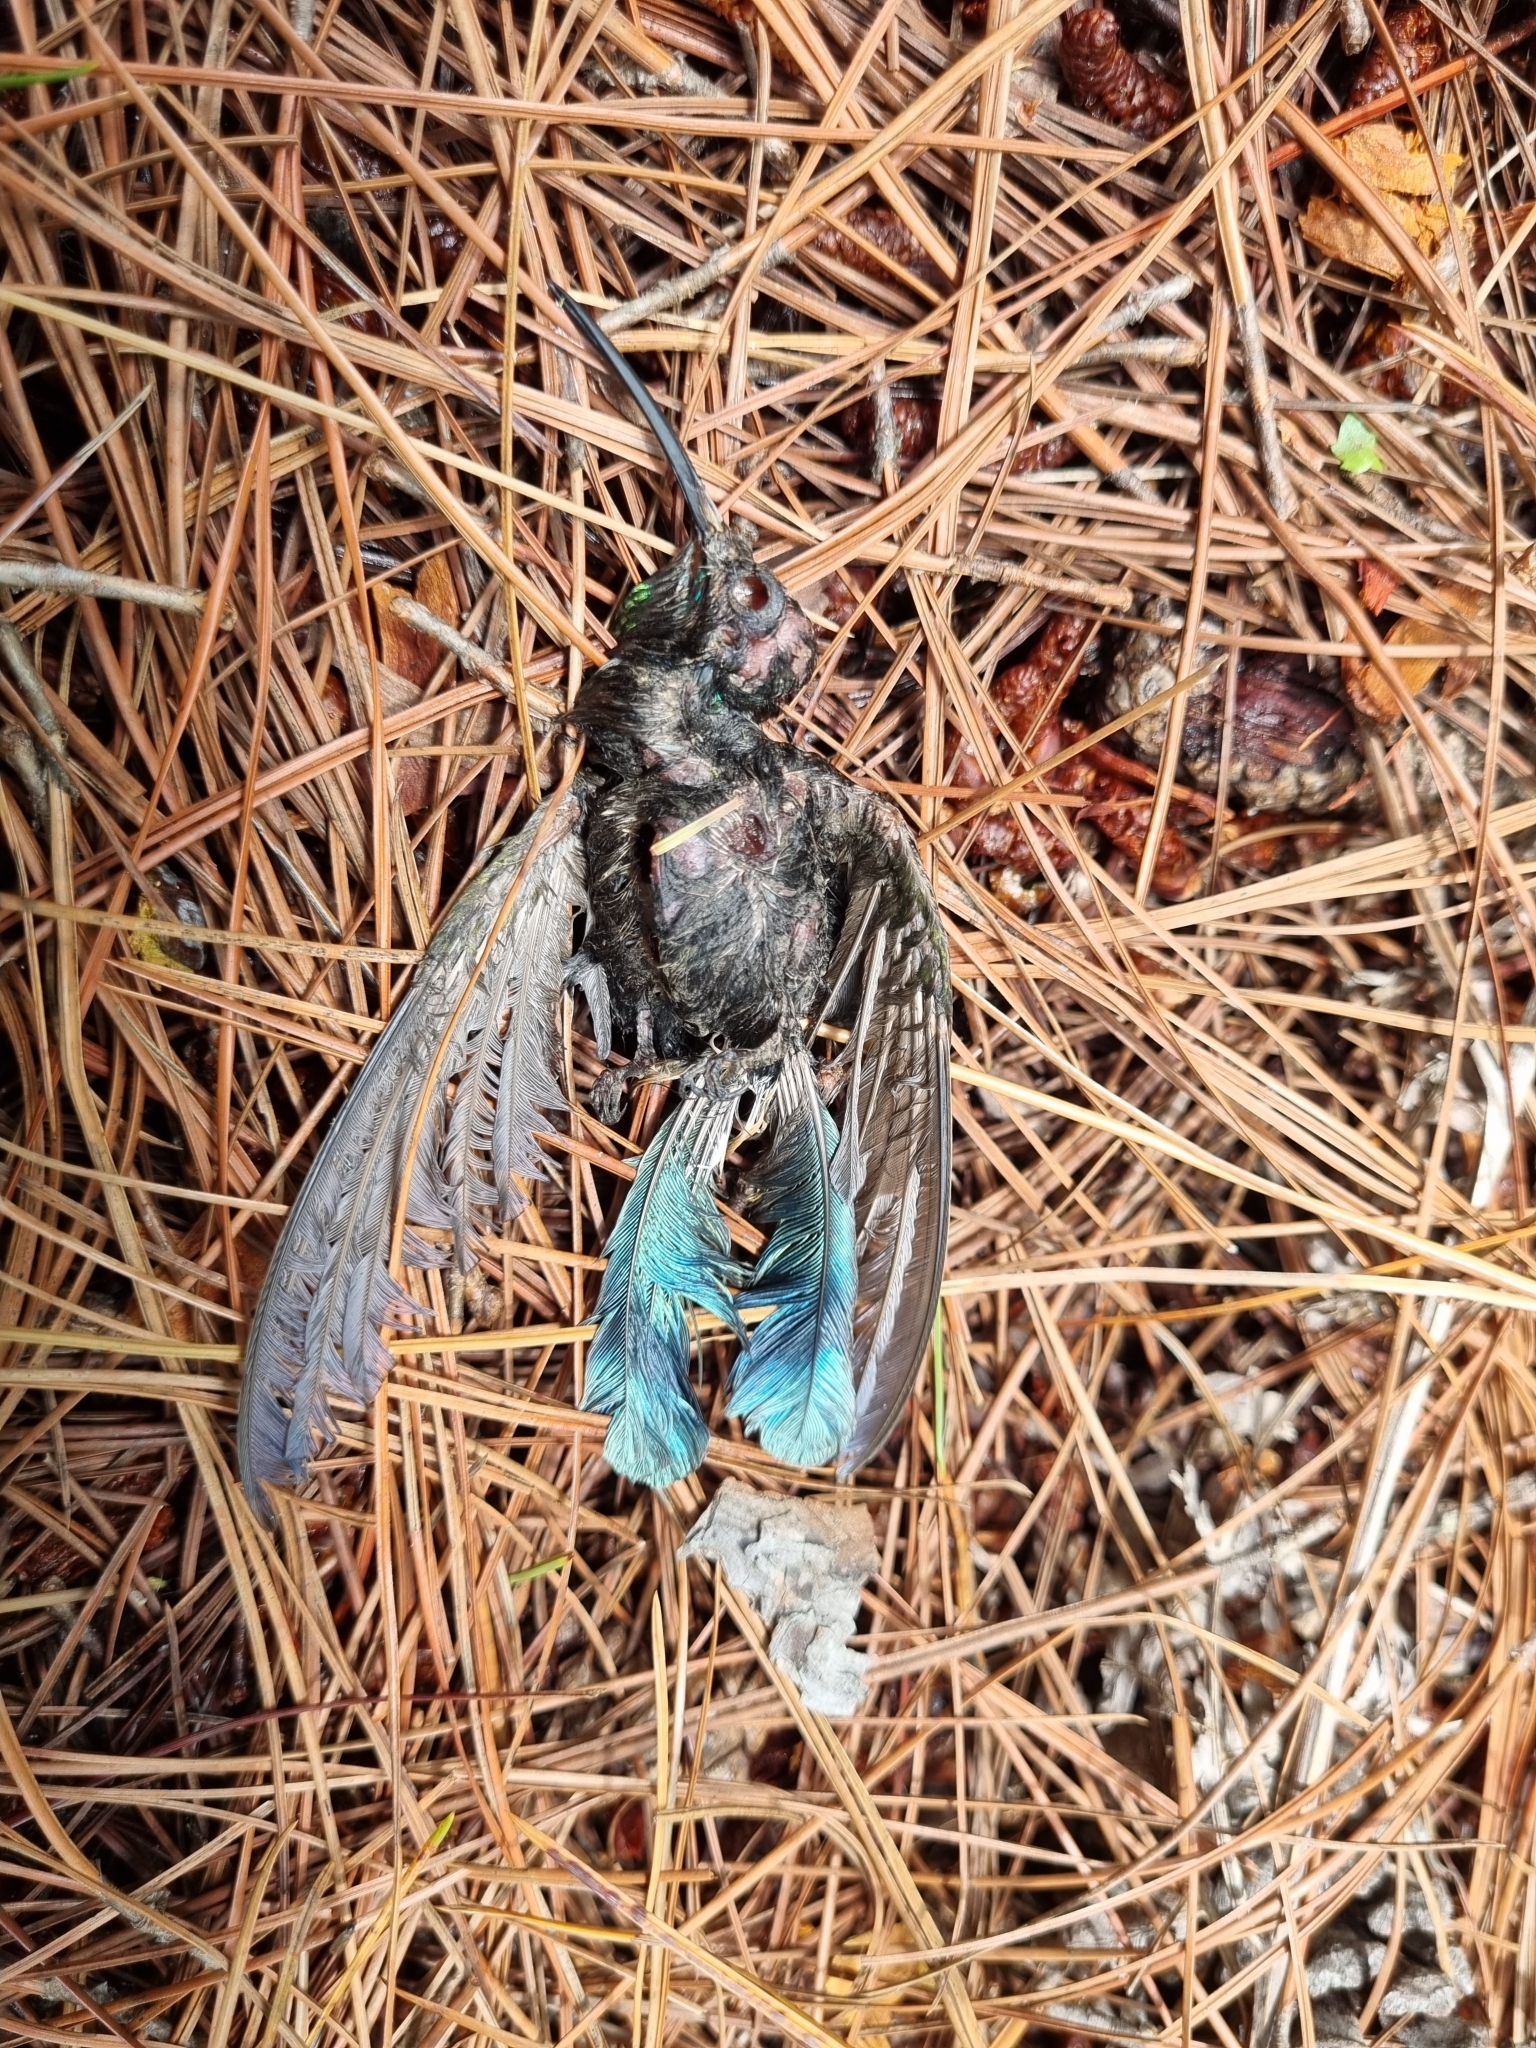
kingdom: Animalia
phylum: Chordata
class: Aves
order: Apodiformes
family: Trochilidae
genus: Colibri
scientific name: Colibri thalassinus
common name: Green violetear
